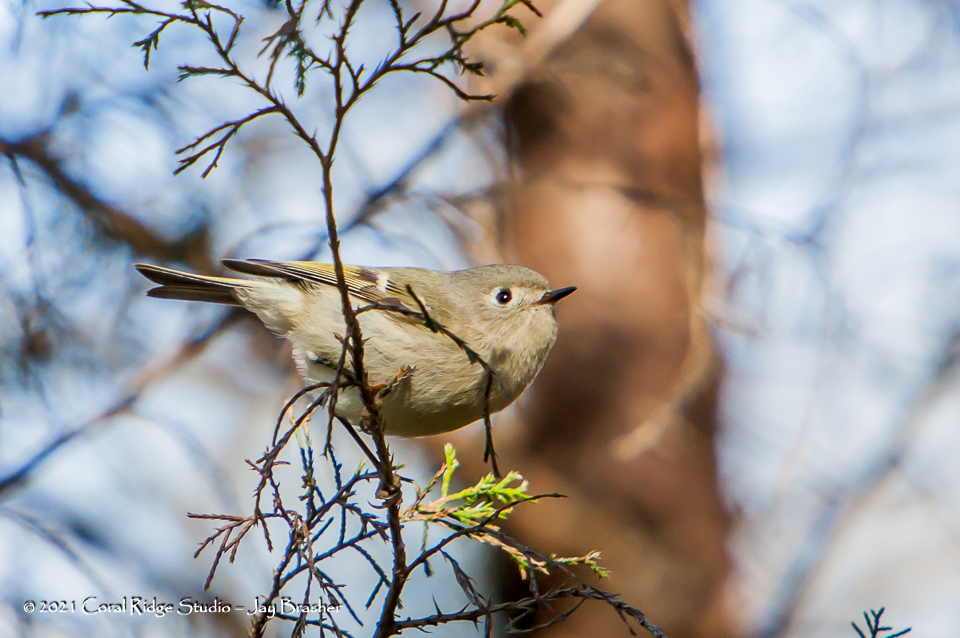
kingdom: Animalia
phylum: Chordata
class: Aves
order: Passeriformes
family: Regulidae
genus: Regulus
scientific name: Regulus calendula
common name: Ruby-crowned kinglet
